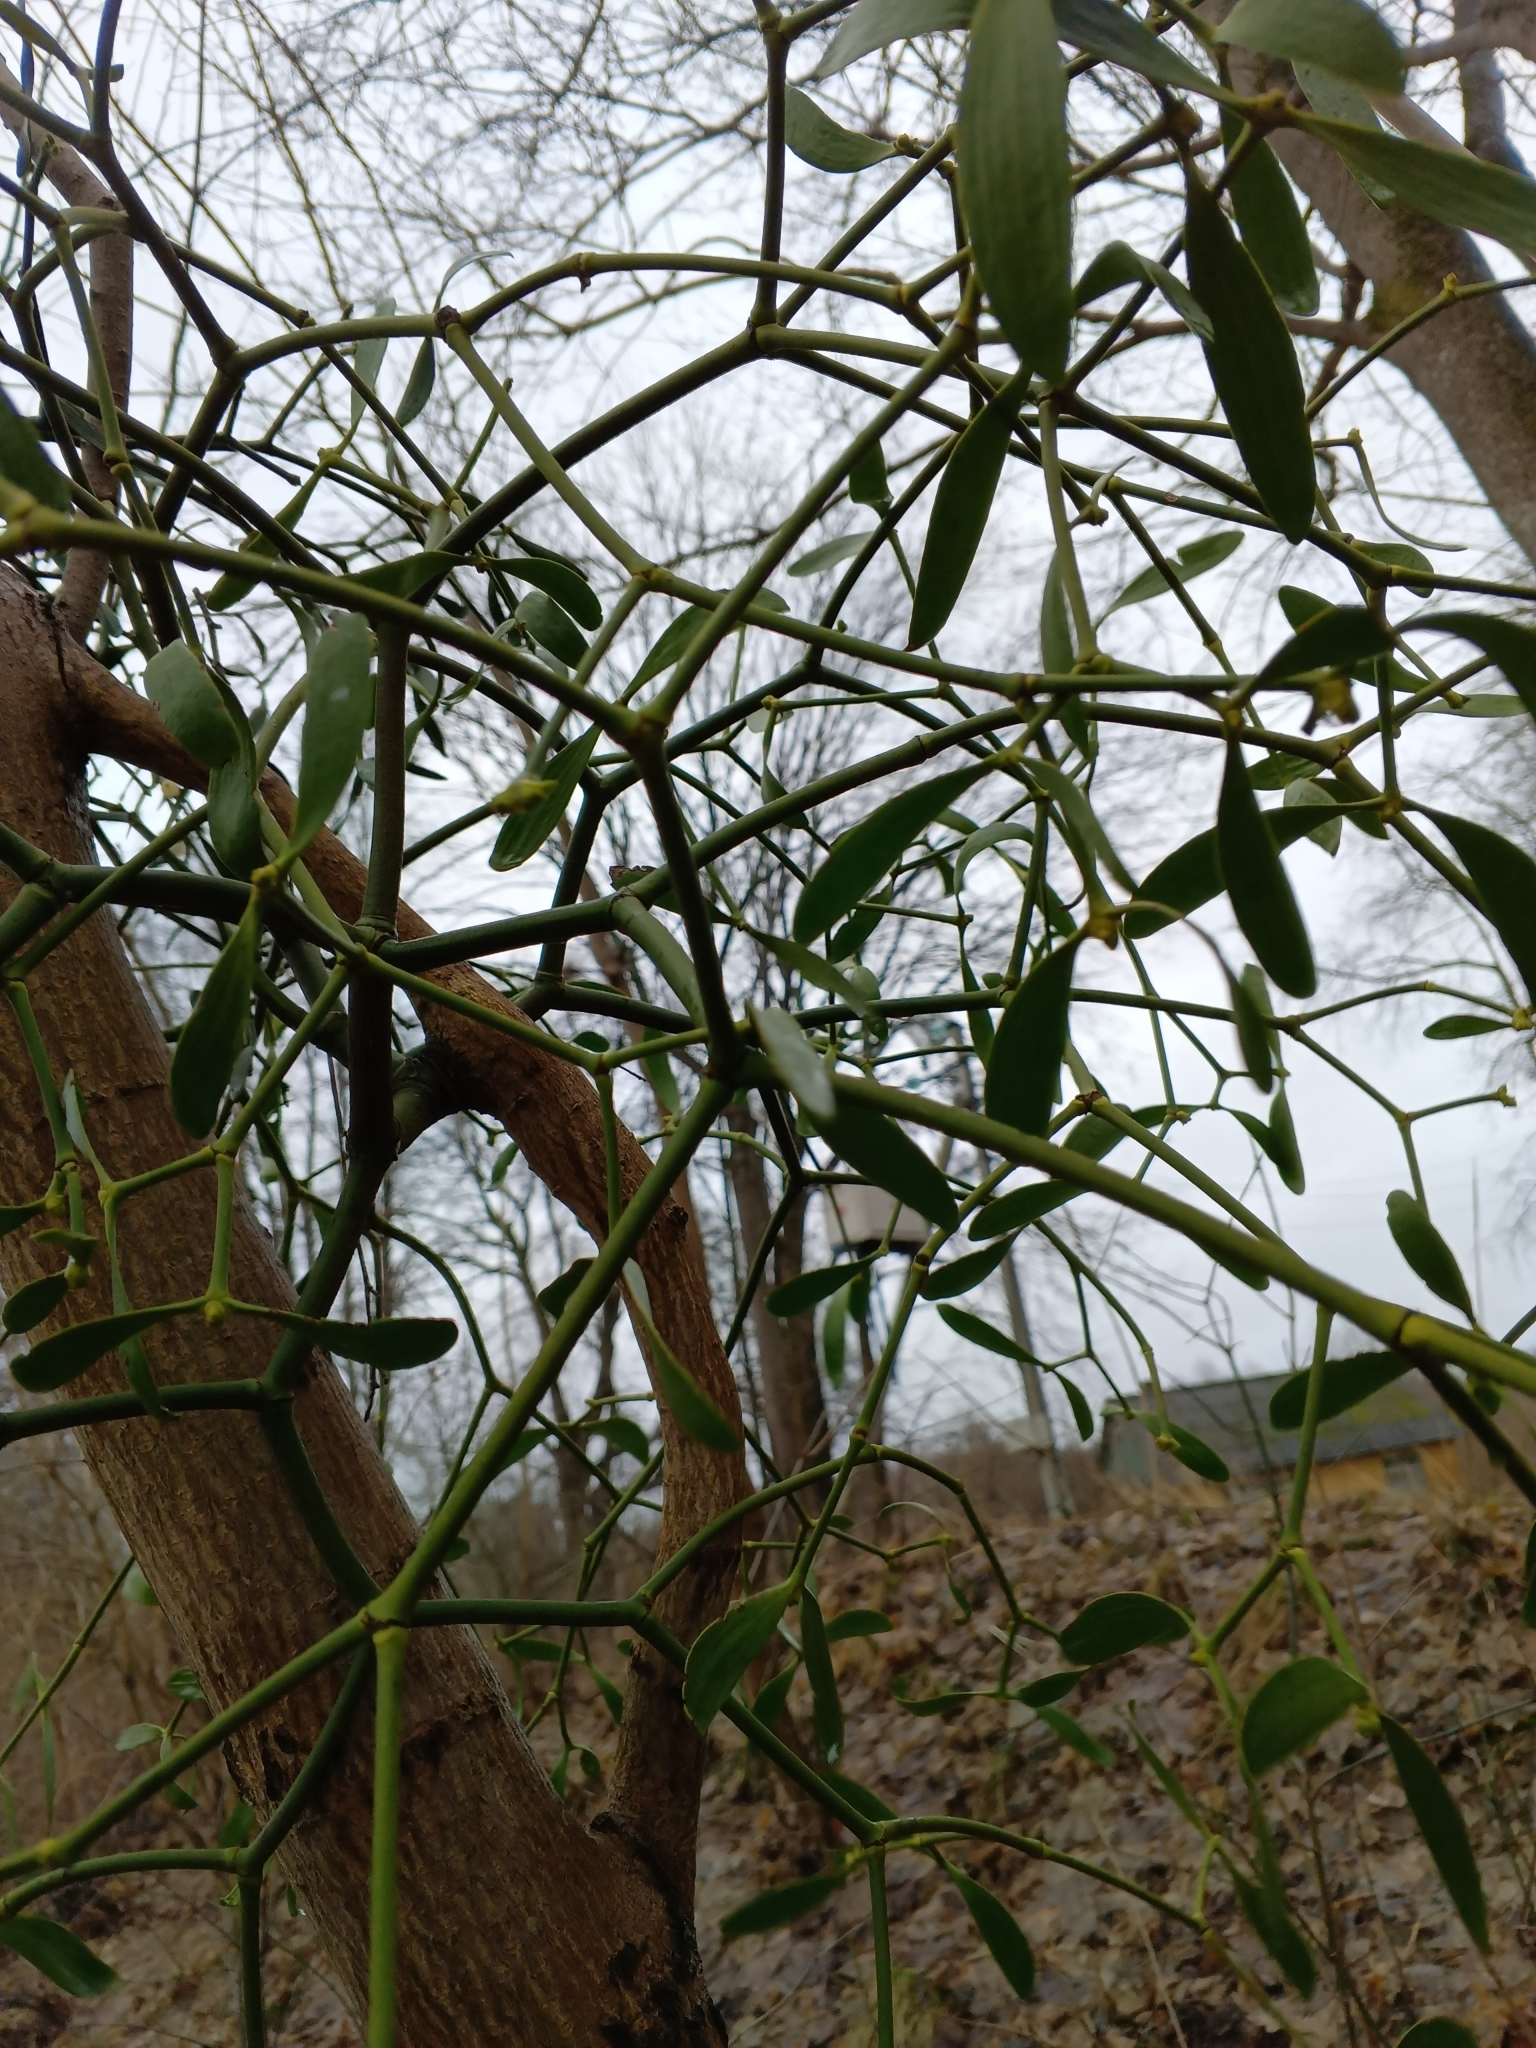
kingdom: Plantae
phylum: Tracheophyta
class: Magnoliopsida
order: Santalales
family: Viscaceae
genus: Viscum
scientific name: Viscum album
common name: Mistletoe
